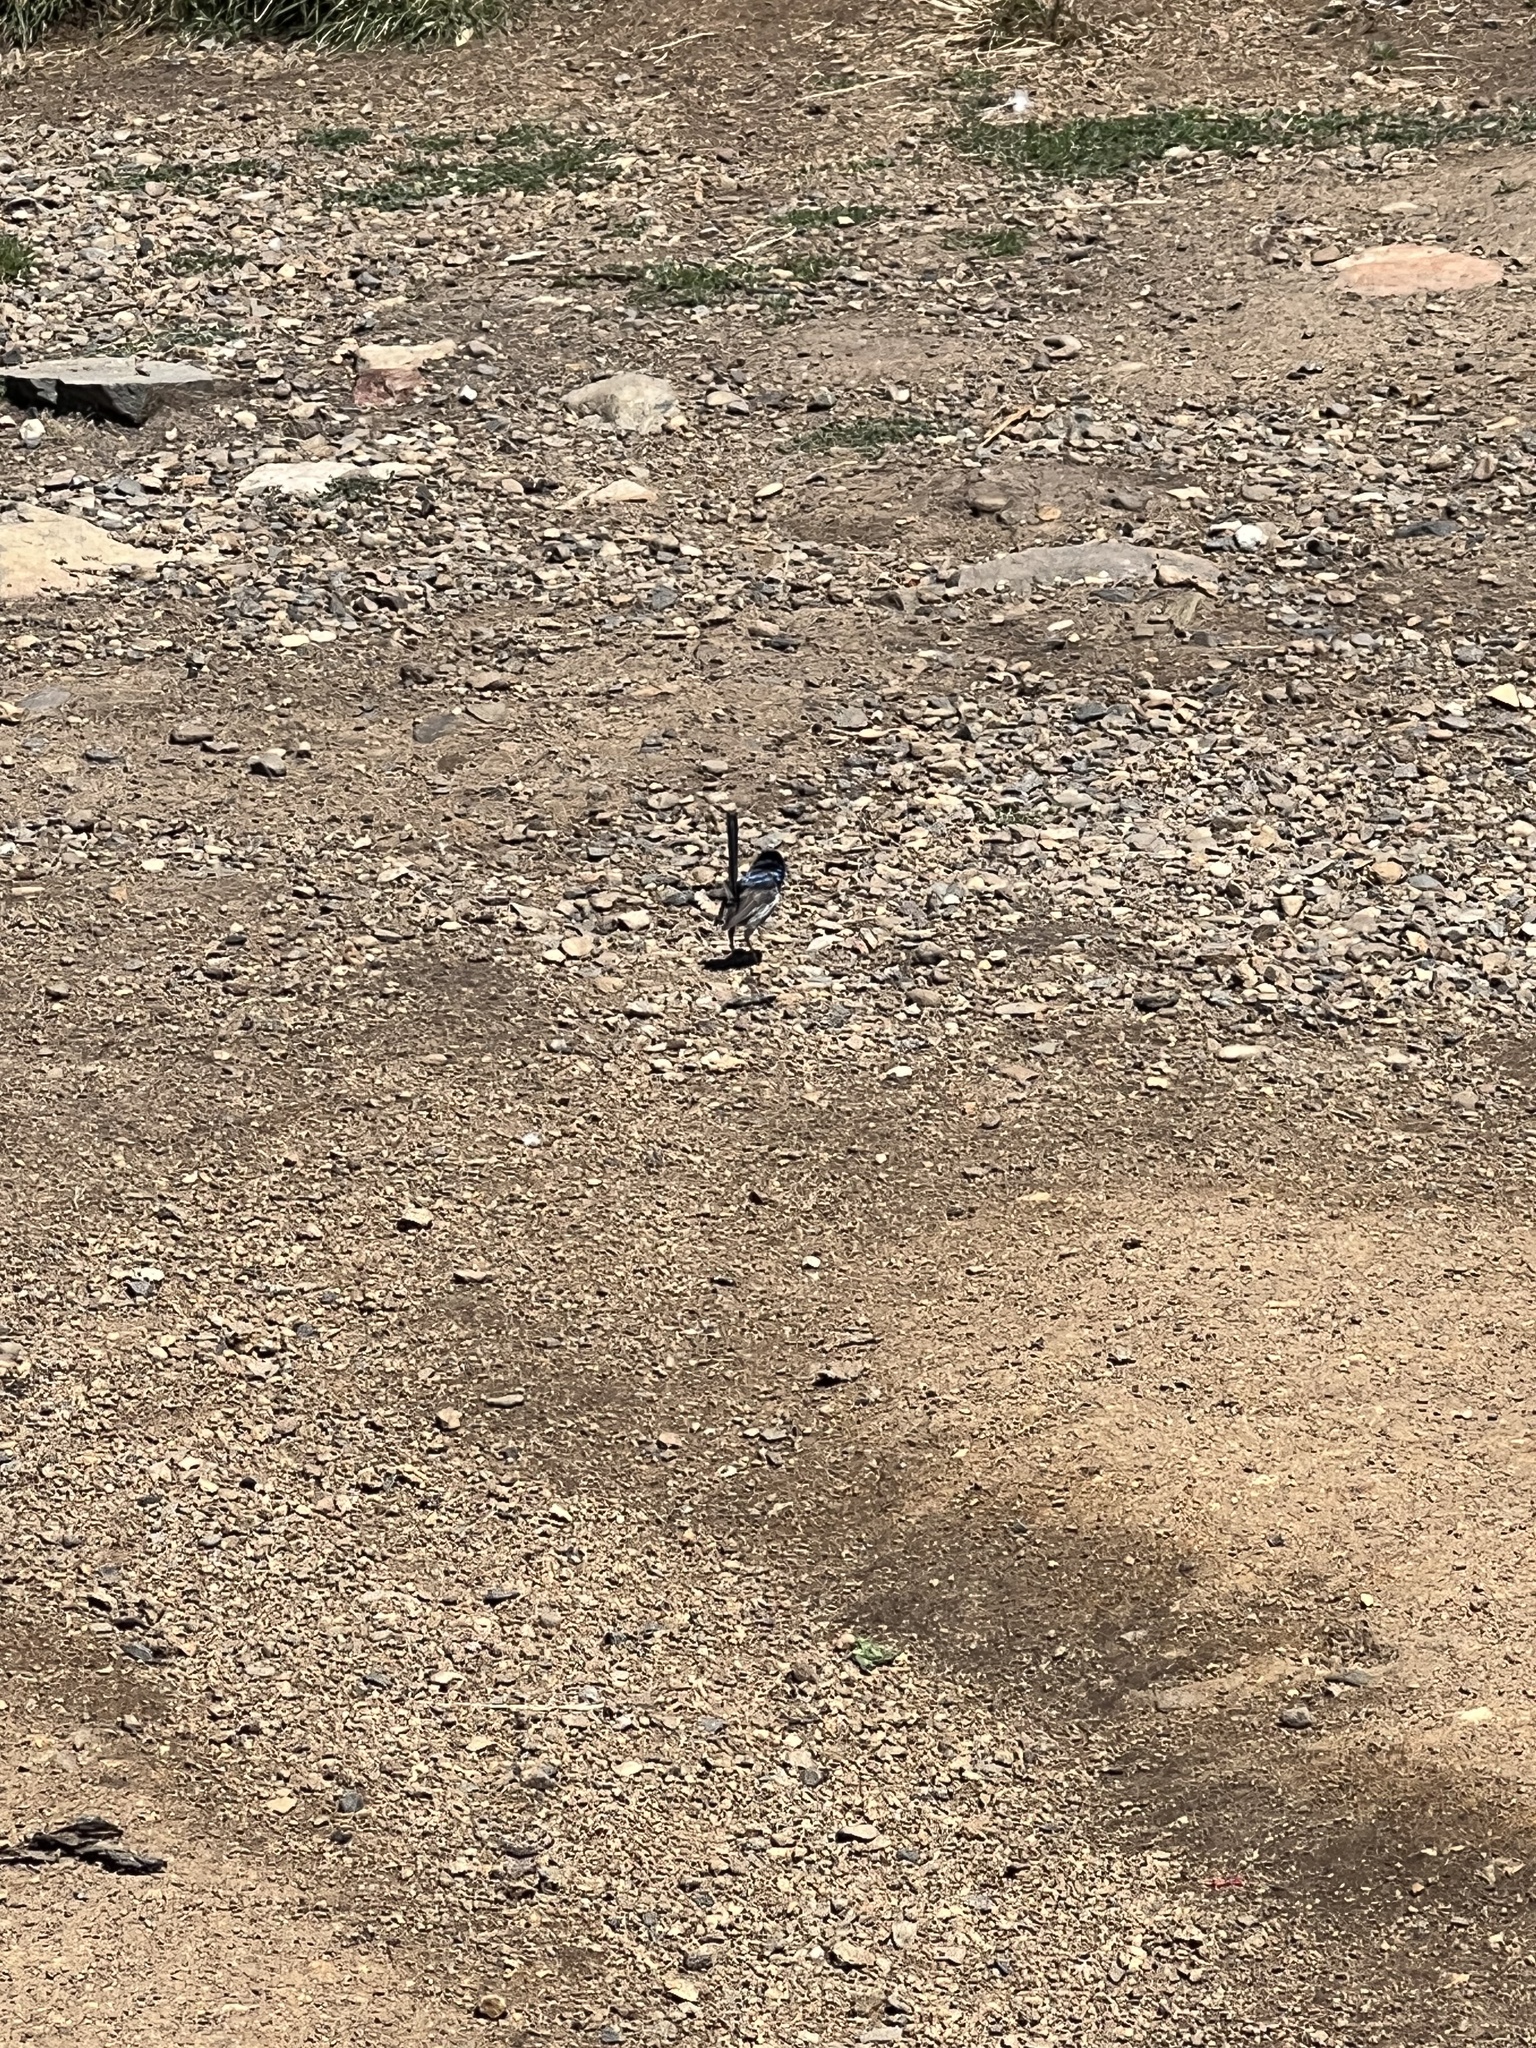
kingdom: Animalia
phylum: Chordata
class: Aves
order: Passeriformes
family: Maluridae
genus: Malurus
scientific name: Malurus cyaneus
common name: Superb fairywren
